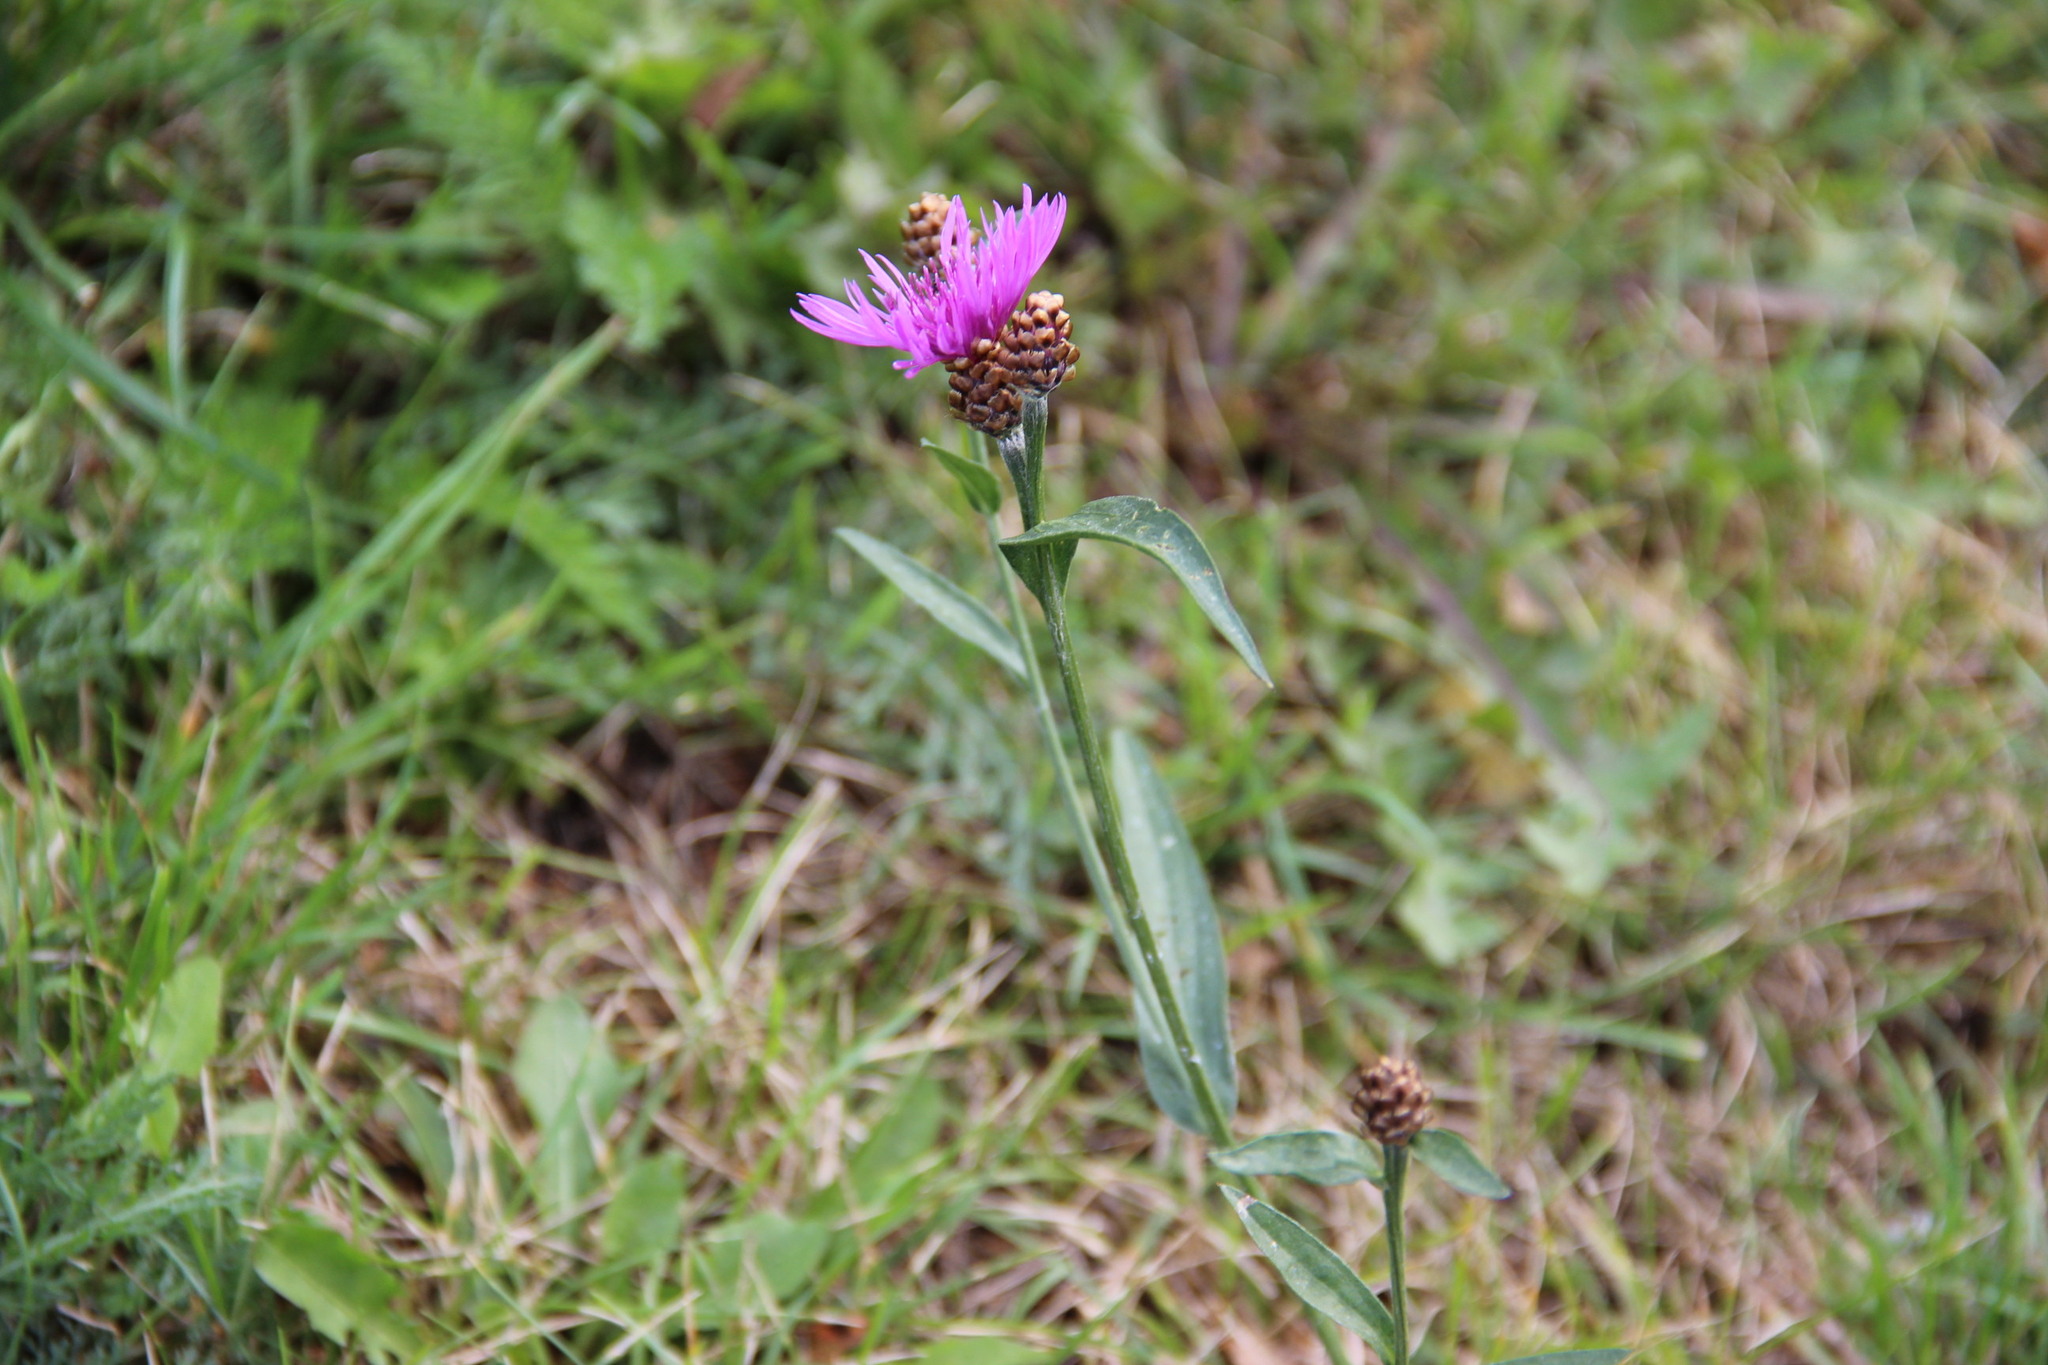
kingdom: Plantae
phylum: Tracheophyta
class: Magnoliopsida
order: Asterales
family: Asteraceae
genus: Centaurea
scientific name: Centaurea jacea
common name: Brown knapweed
